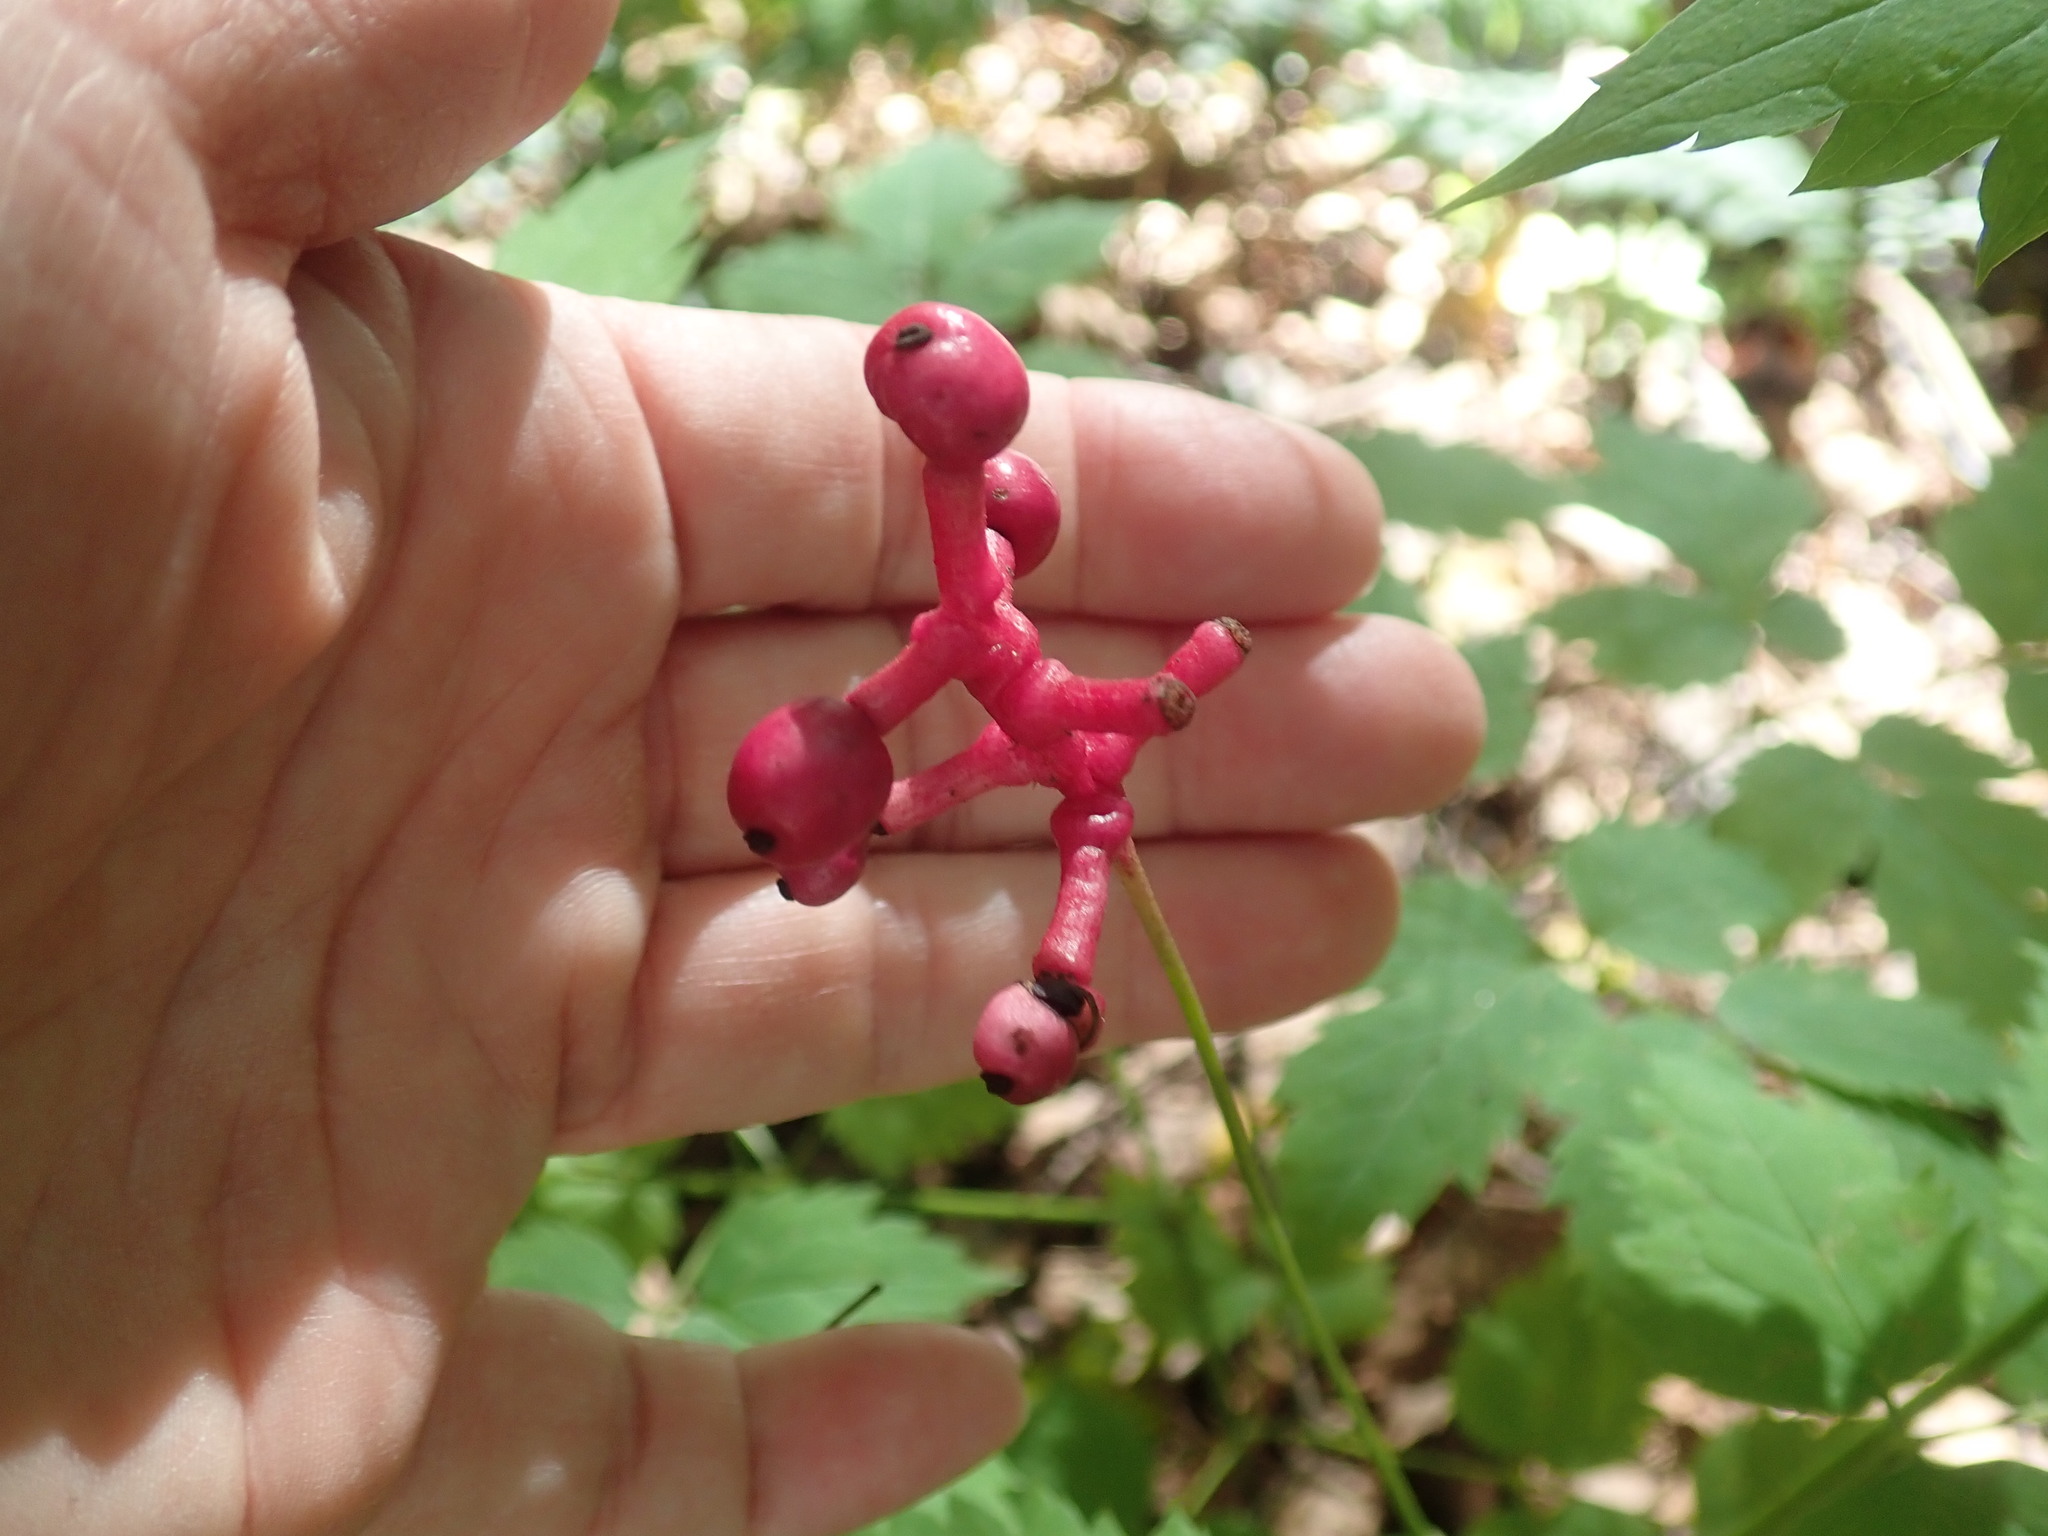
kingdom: Plantae
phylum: Tracheophyta
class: Magnoliopsida
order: Ranunculales
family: Ranunculaceae
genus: Actaea
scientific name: Actaea pachypoda
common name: Doll's-eyes
